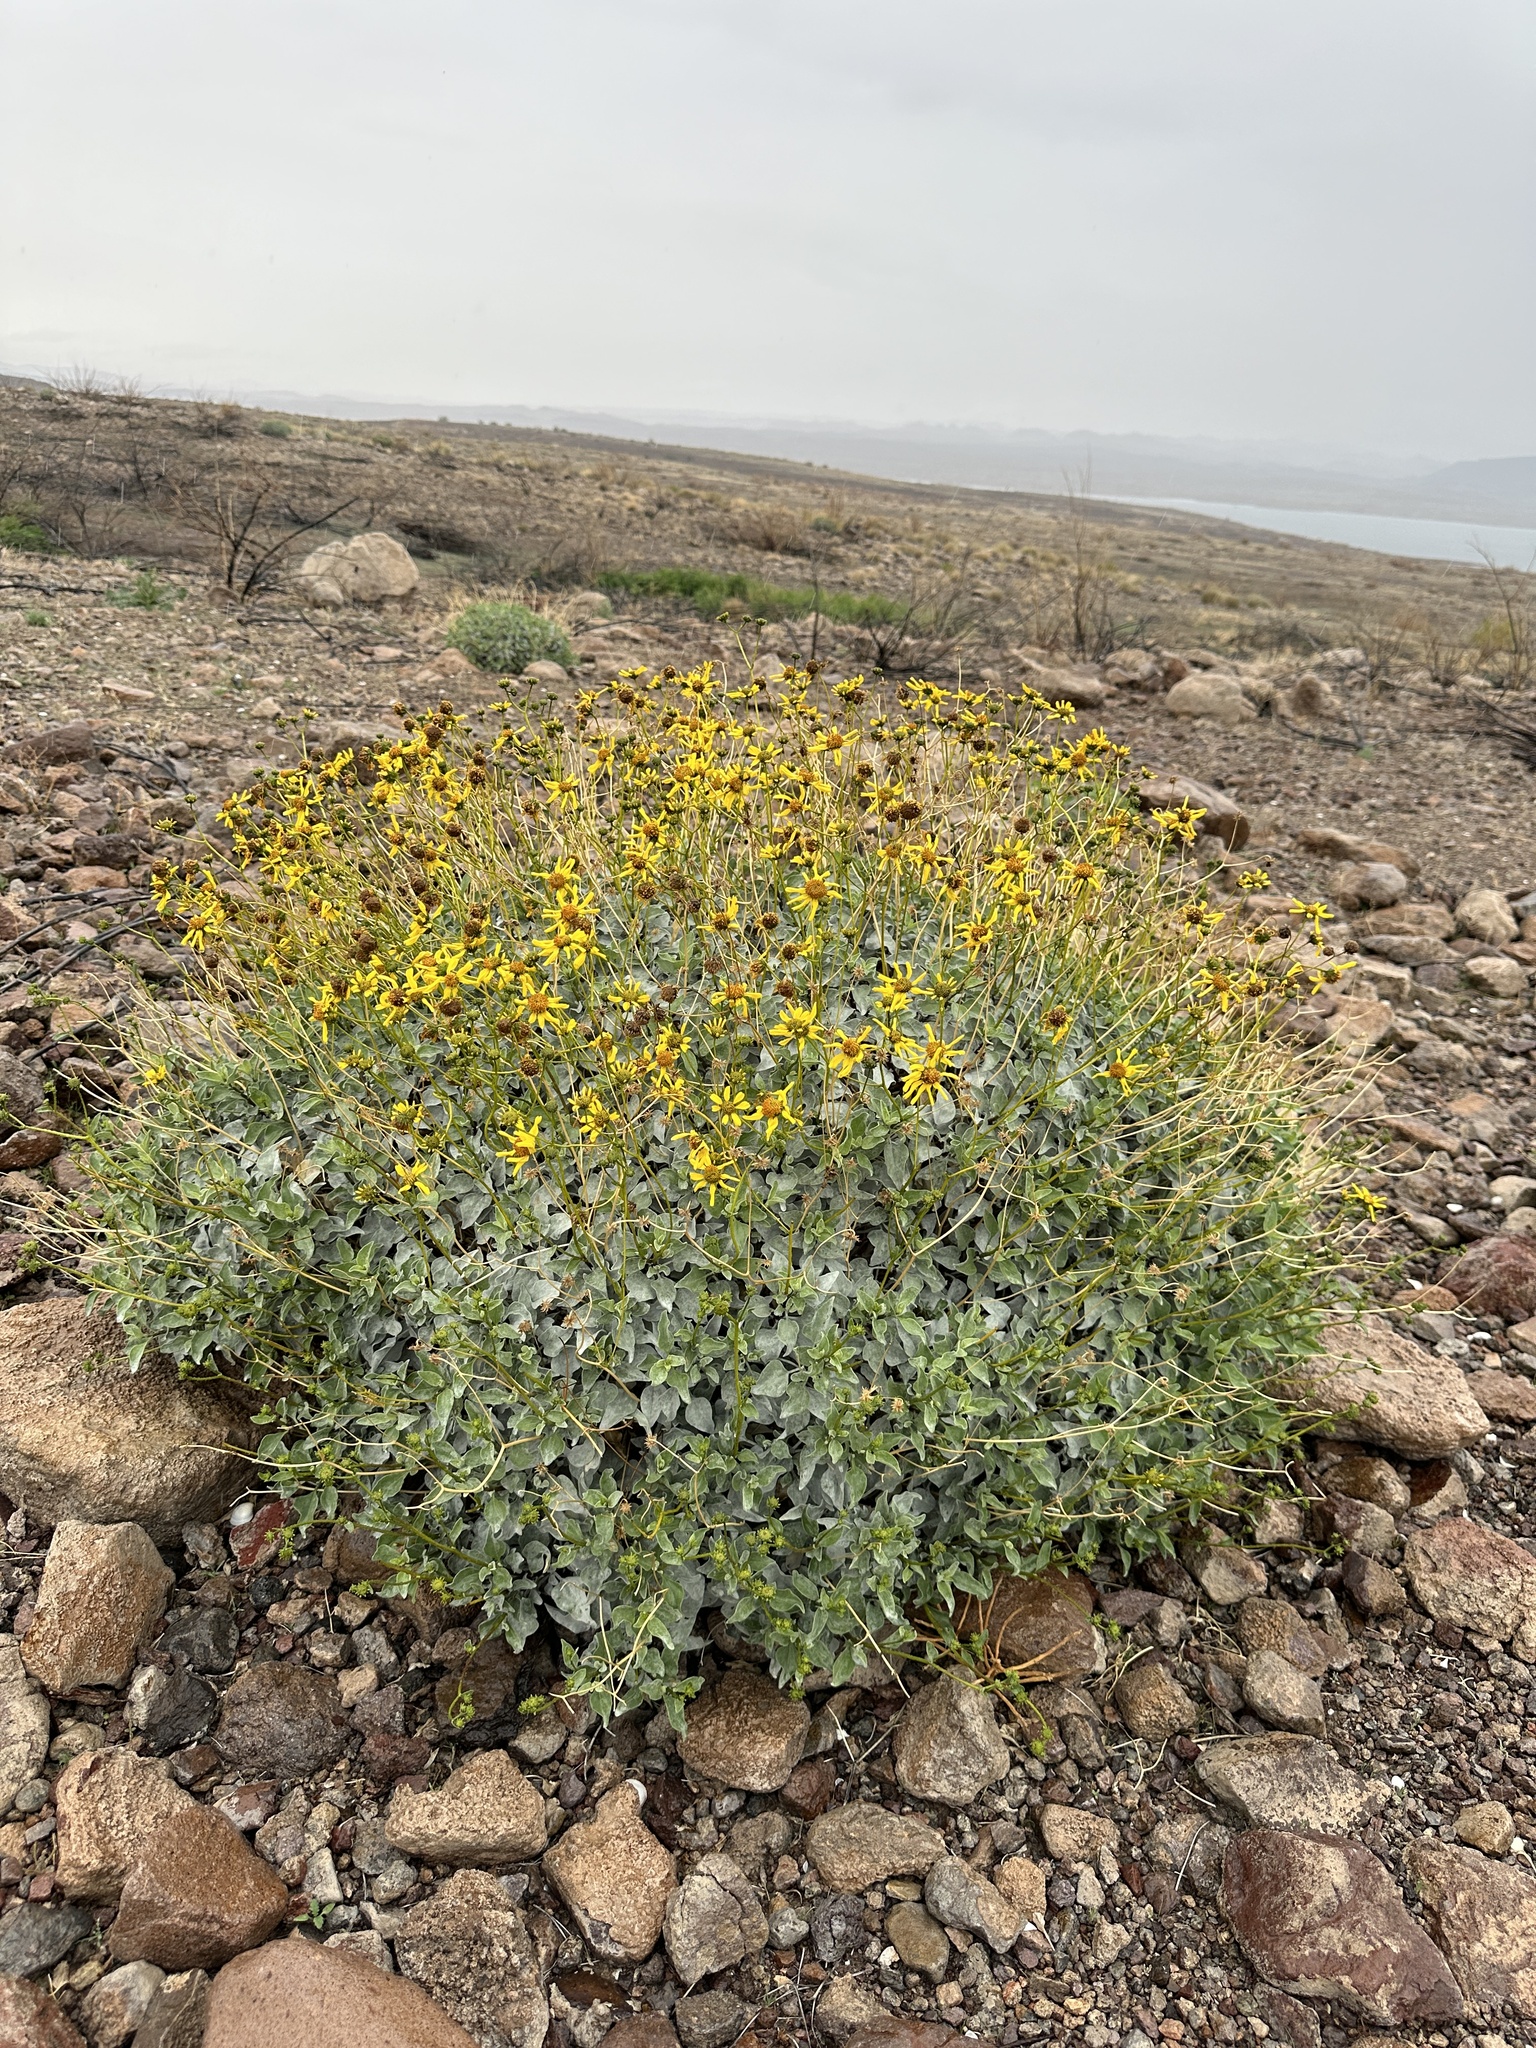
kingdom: Plantae
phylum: Tracheophyta
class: Magnoliopsida
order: Asterales
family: Asteraceae
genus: Encelia
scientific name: Encelia farinosa
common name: Brittlebush
